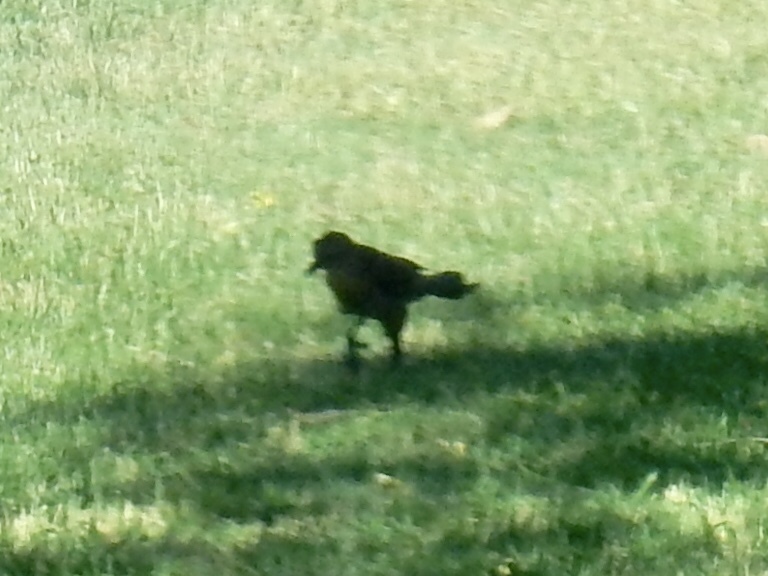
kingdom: Animalia
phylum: Chordata
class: Aves
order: Passeriformes
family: Icteridae
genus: Quiscalus
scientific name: Quiscalus mexicanus
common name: Great-tailed grackle
